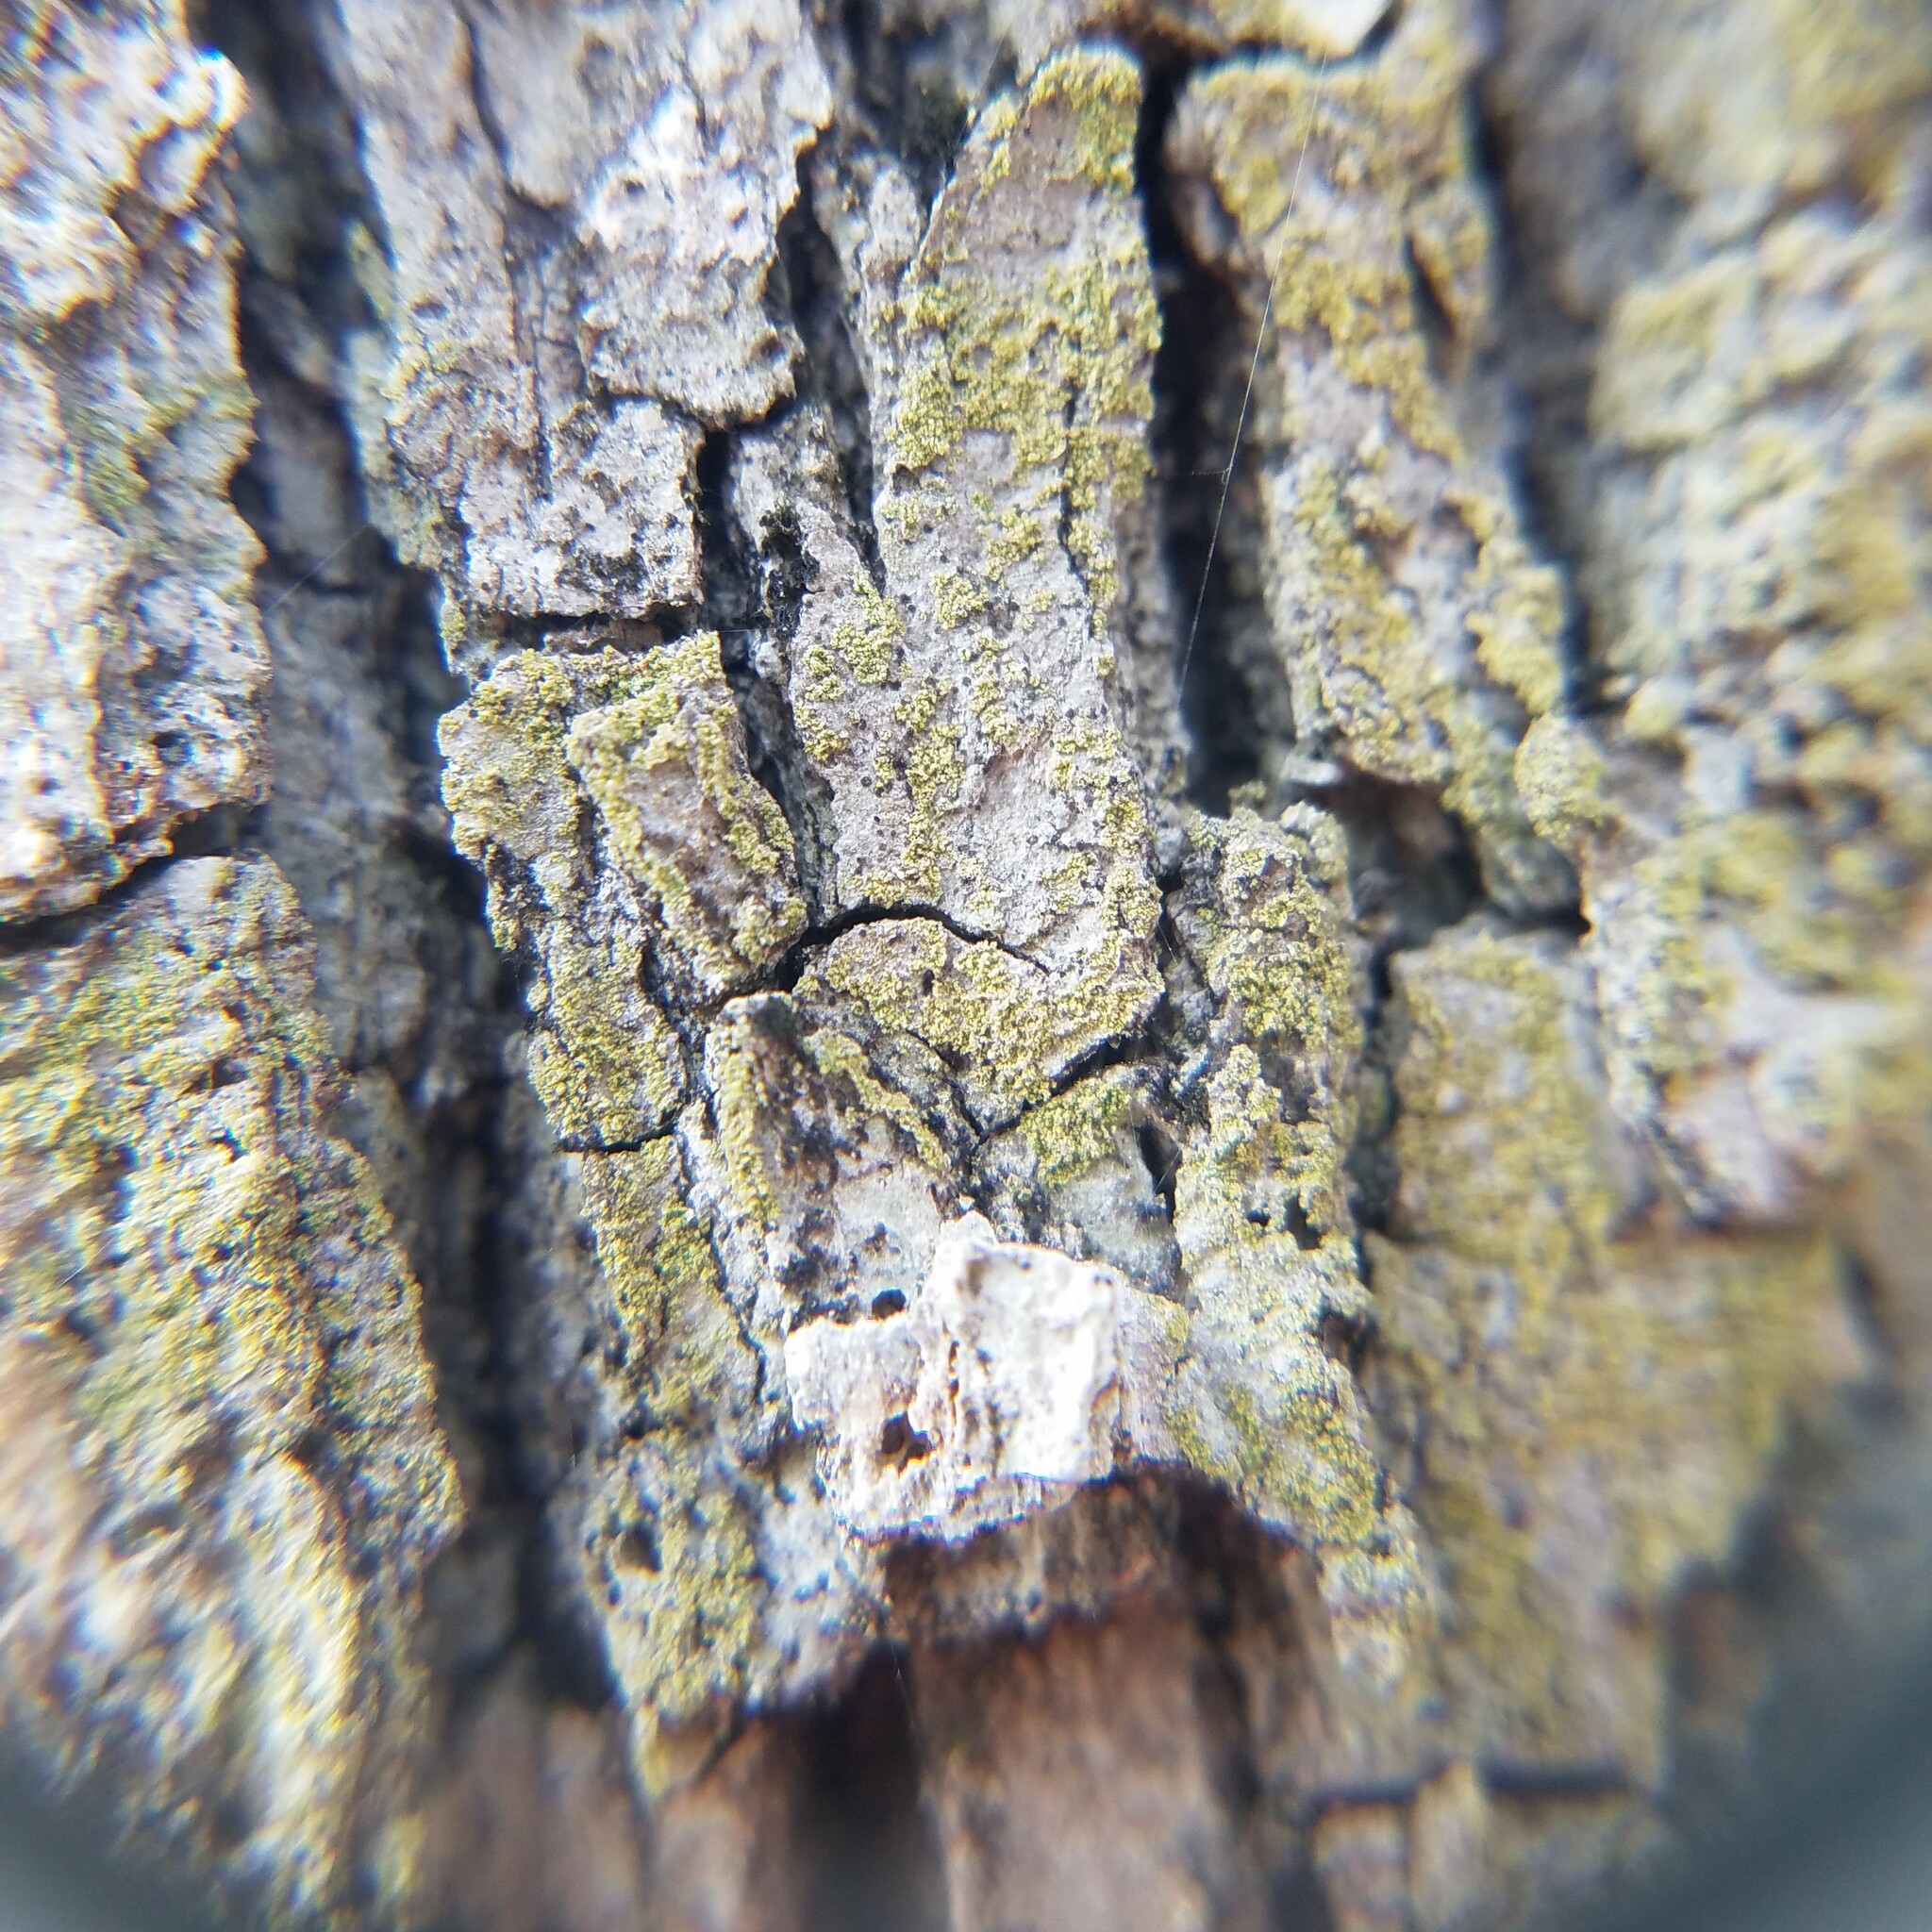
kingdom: Fungi
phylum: Ascomycota
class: Lecanoromycetes
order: Caliciales
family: Caliciaceae
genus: Ciposia
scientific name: Ciposia wheeleri
